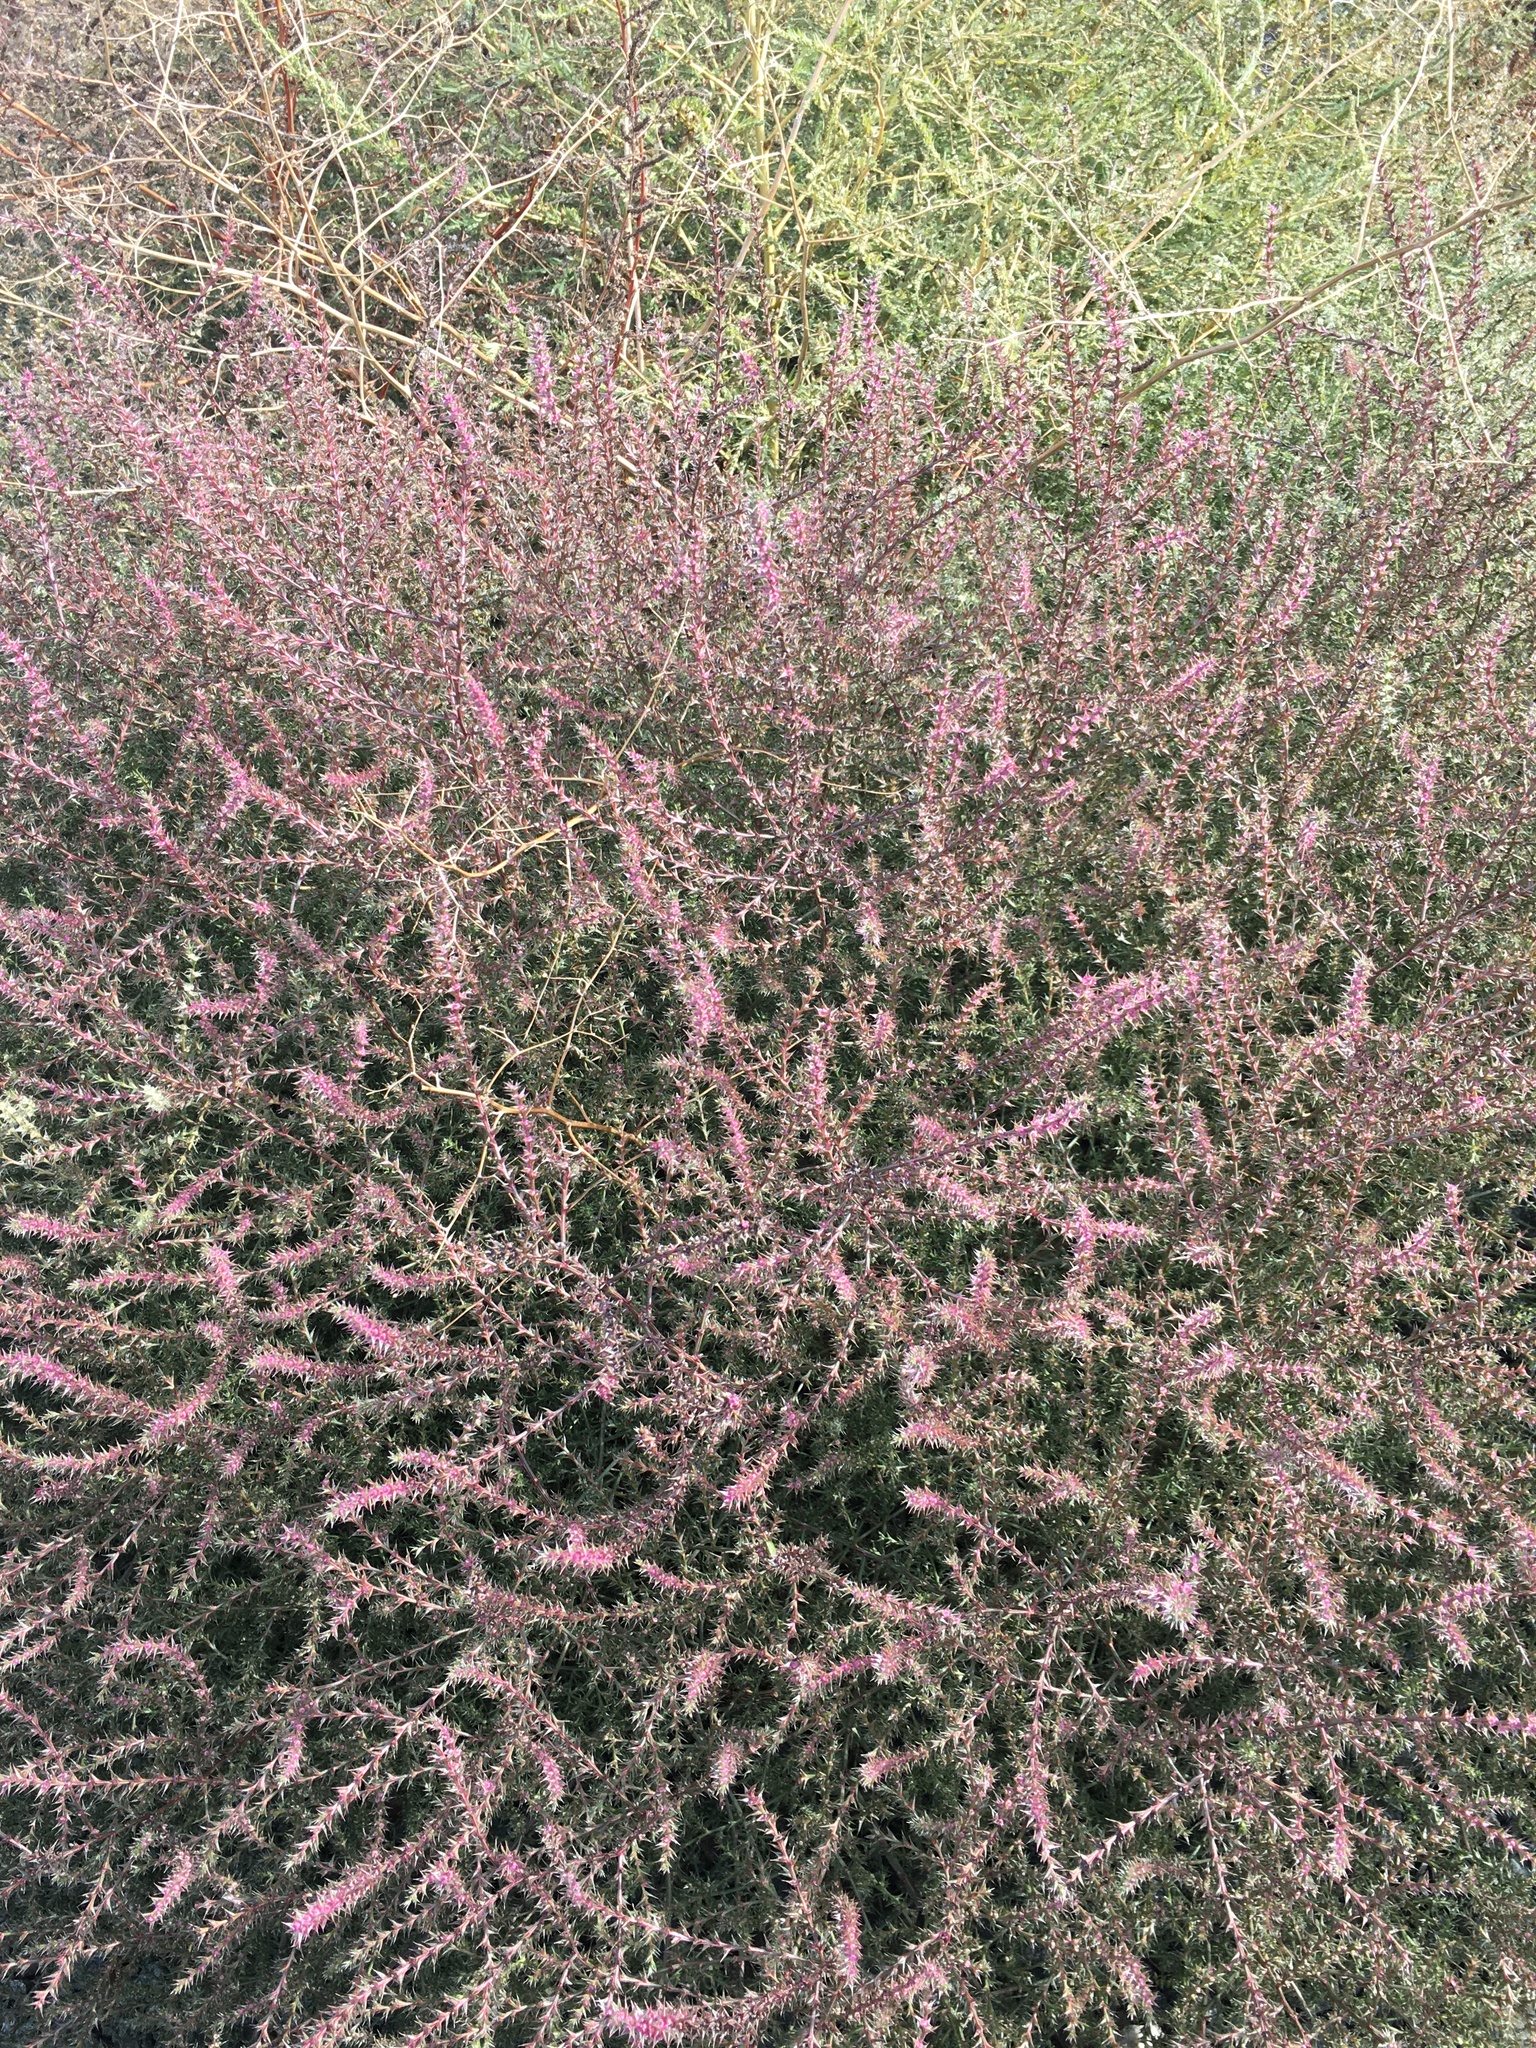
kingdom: Plantae
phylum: Tracheophyta
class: Magnoliopsida
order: Caryophyllales
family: Amaranthaceae
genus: Salsola
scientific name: Salsola tragus
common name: Prickly russian thistle
